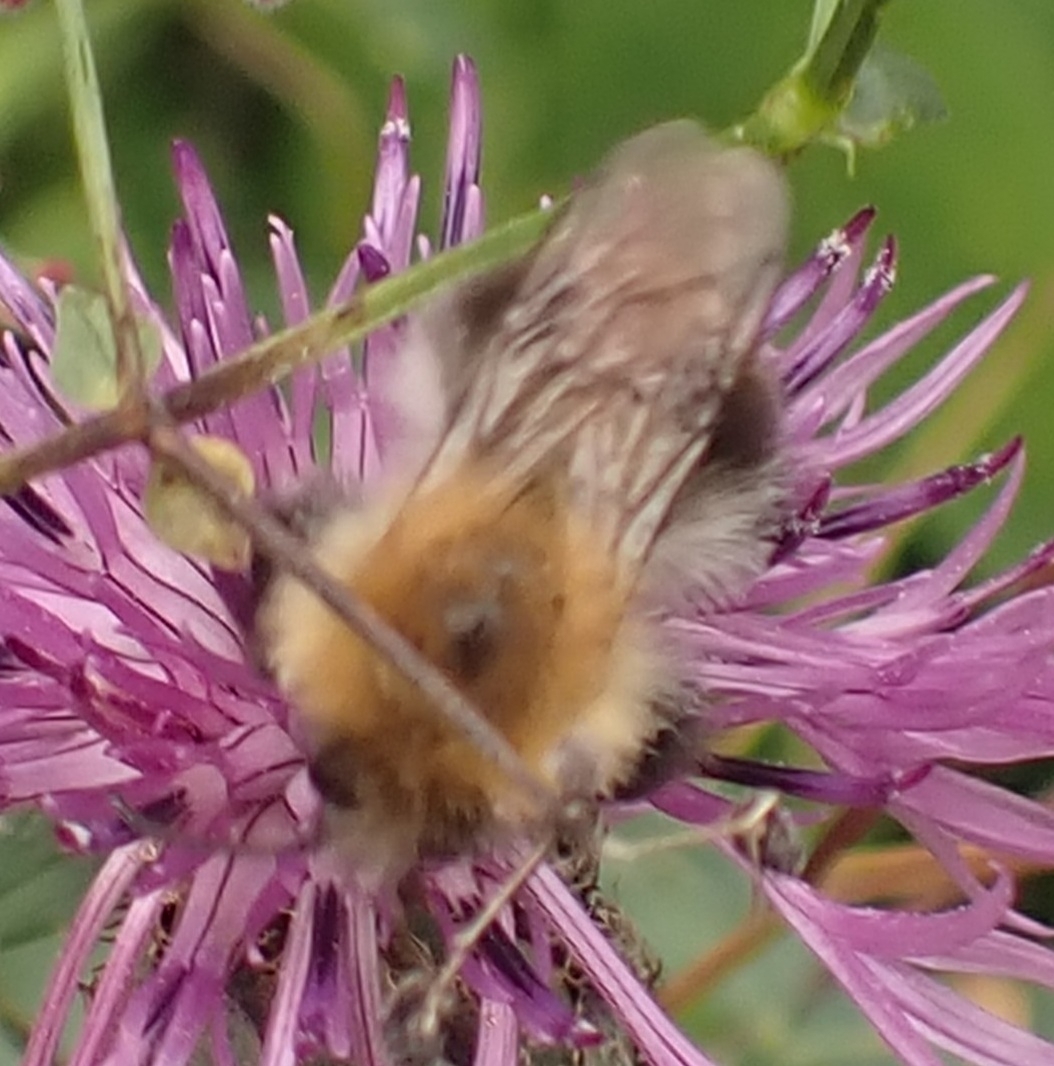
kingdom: Animalia
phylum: Arthropoda
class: Insecta
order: Hymenoptera
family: Apidae
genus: Bombus
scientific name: Bombus pascuorum
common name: Common carder bee
